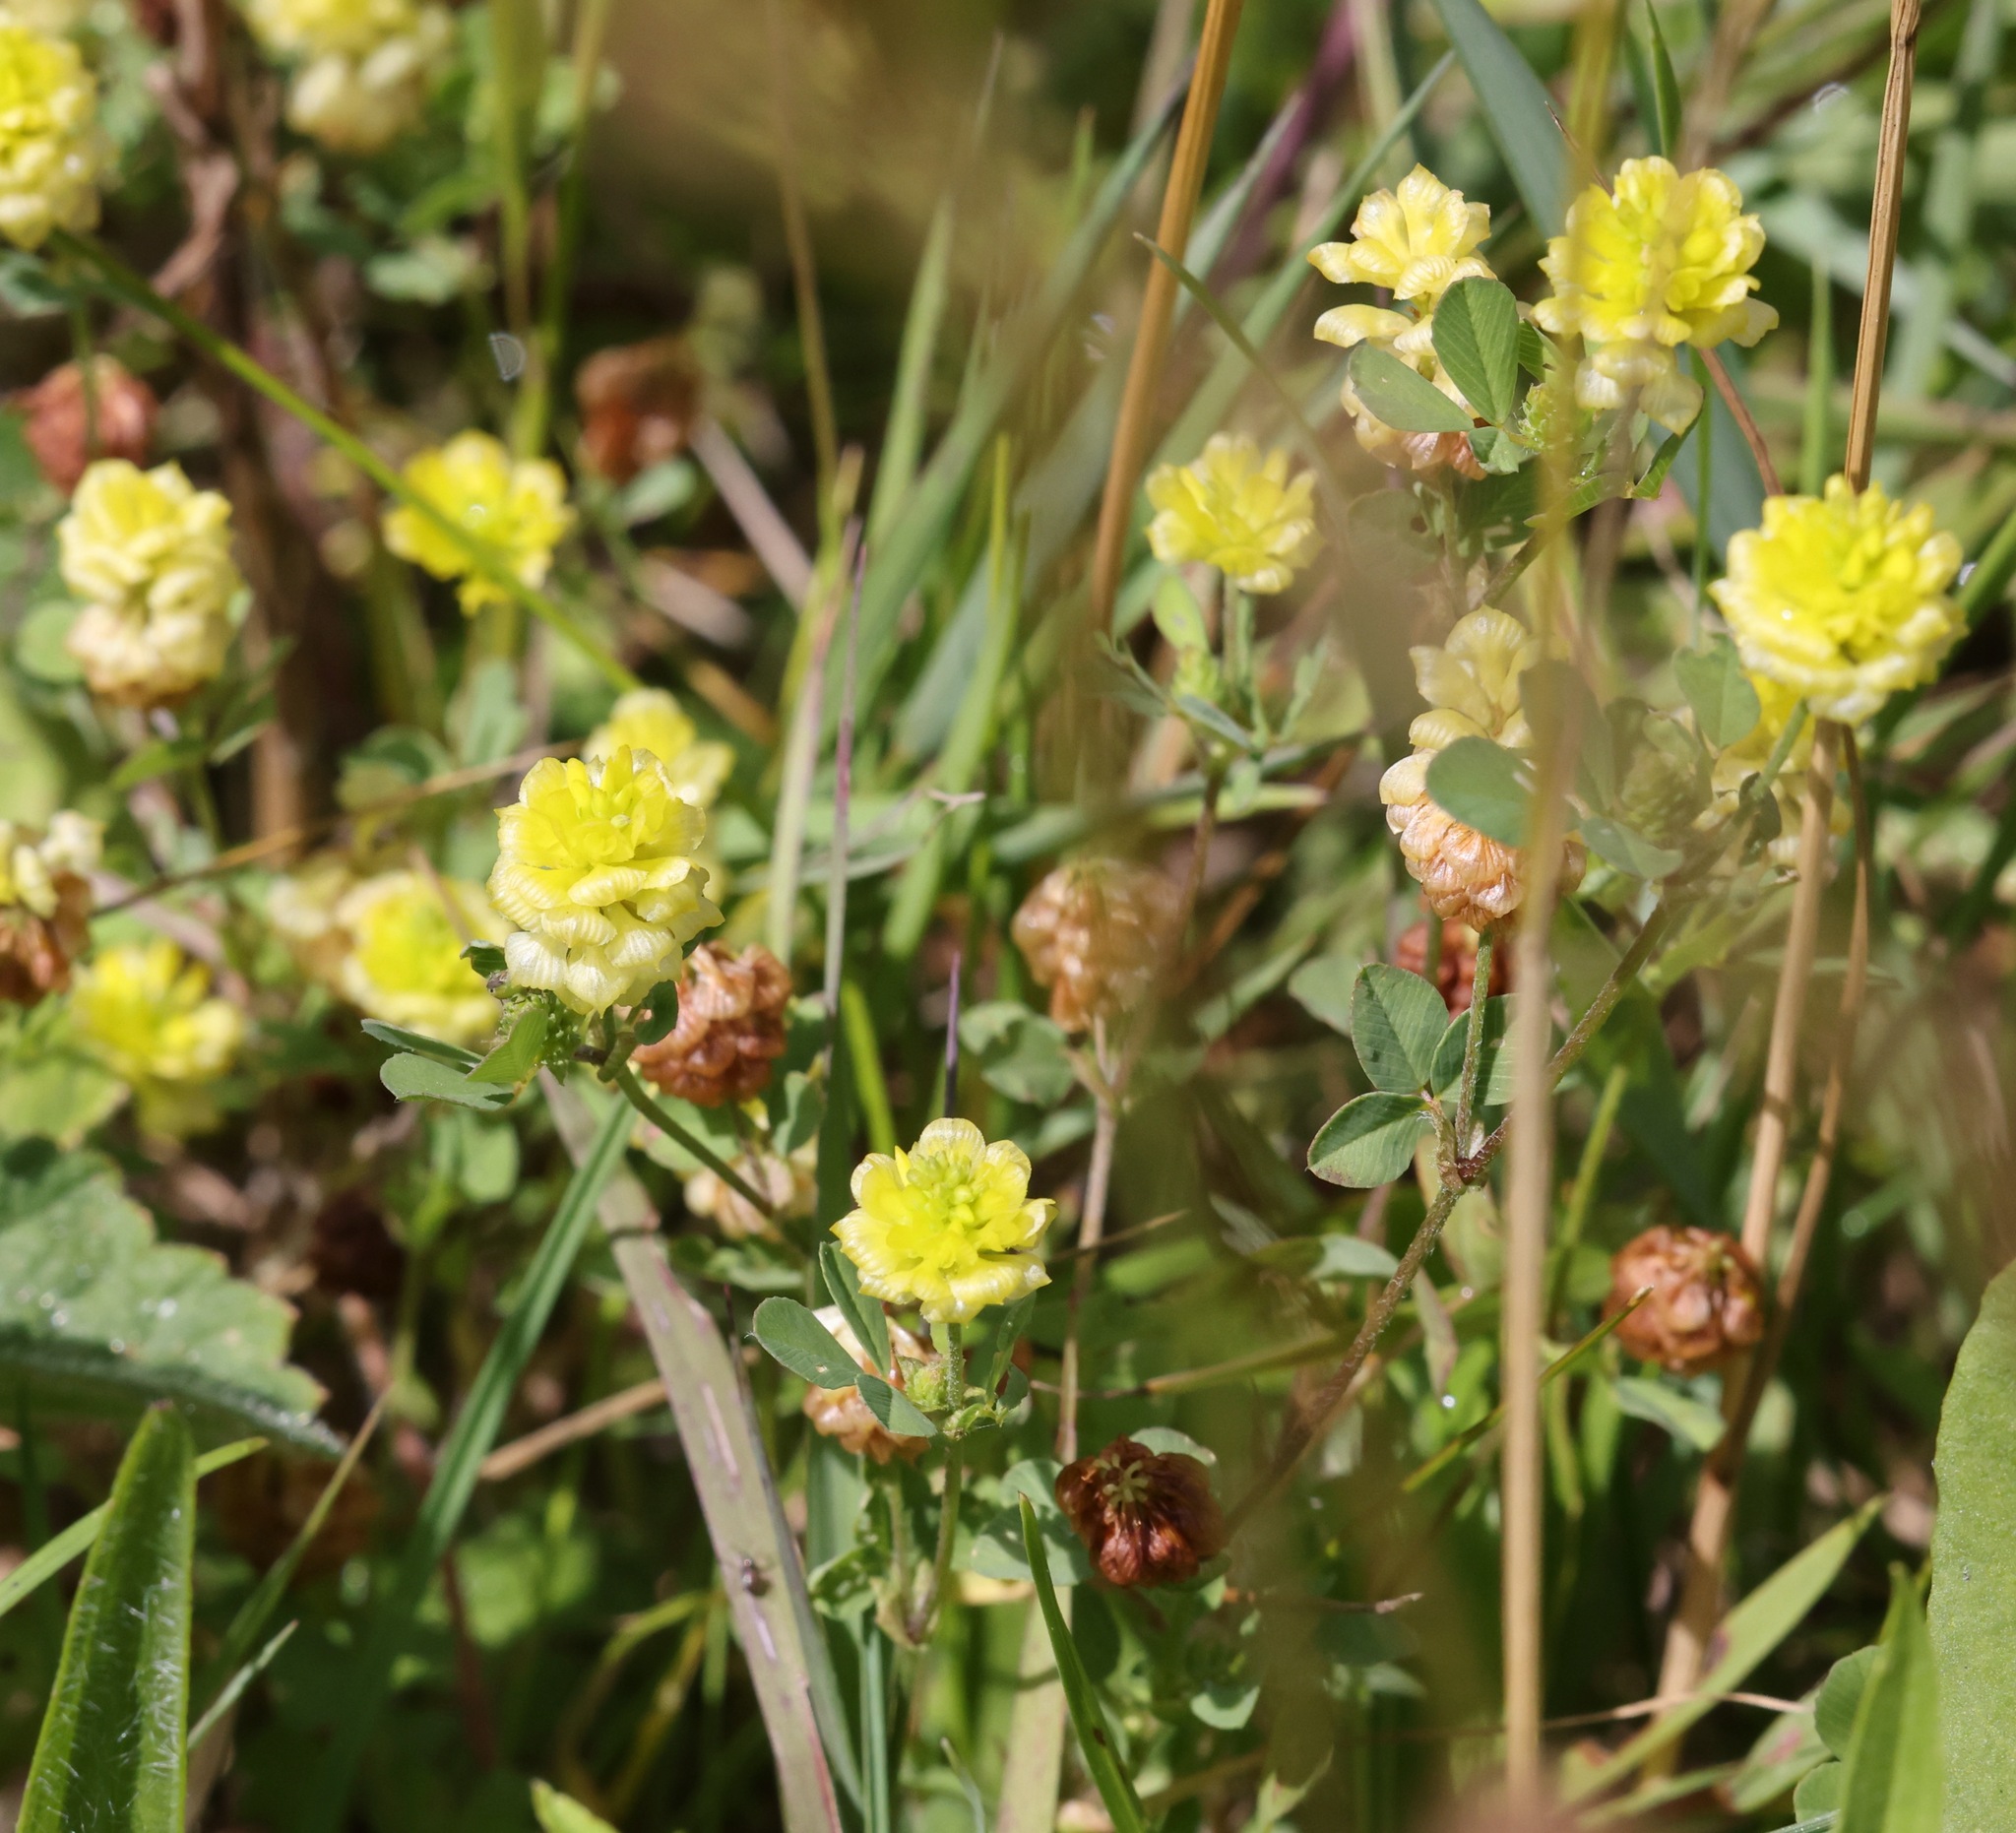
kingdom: Plantae
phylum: Tracheophyta
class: Magnoliopsida
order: Fabales
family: Fabaceae
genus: Trifolium
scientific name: Trifolium campestre
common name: Field clover
